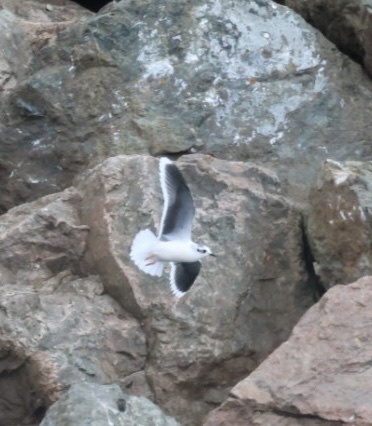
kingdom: Animalia
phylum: Chordata
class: Aves
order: Charadriiformes
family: Laridae
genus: Hydrocoloeus
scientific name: Hydrocoloeus minutus
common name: Little gull
